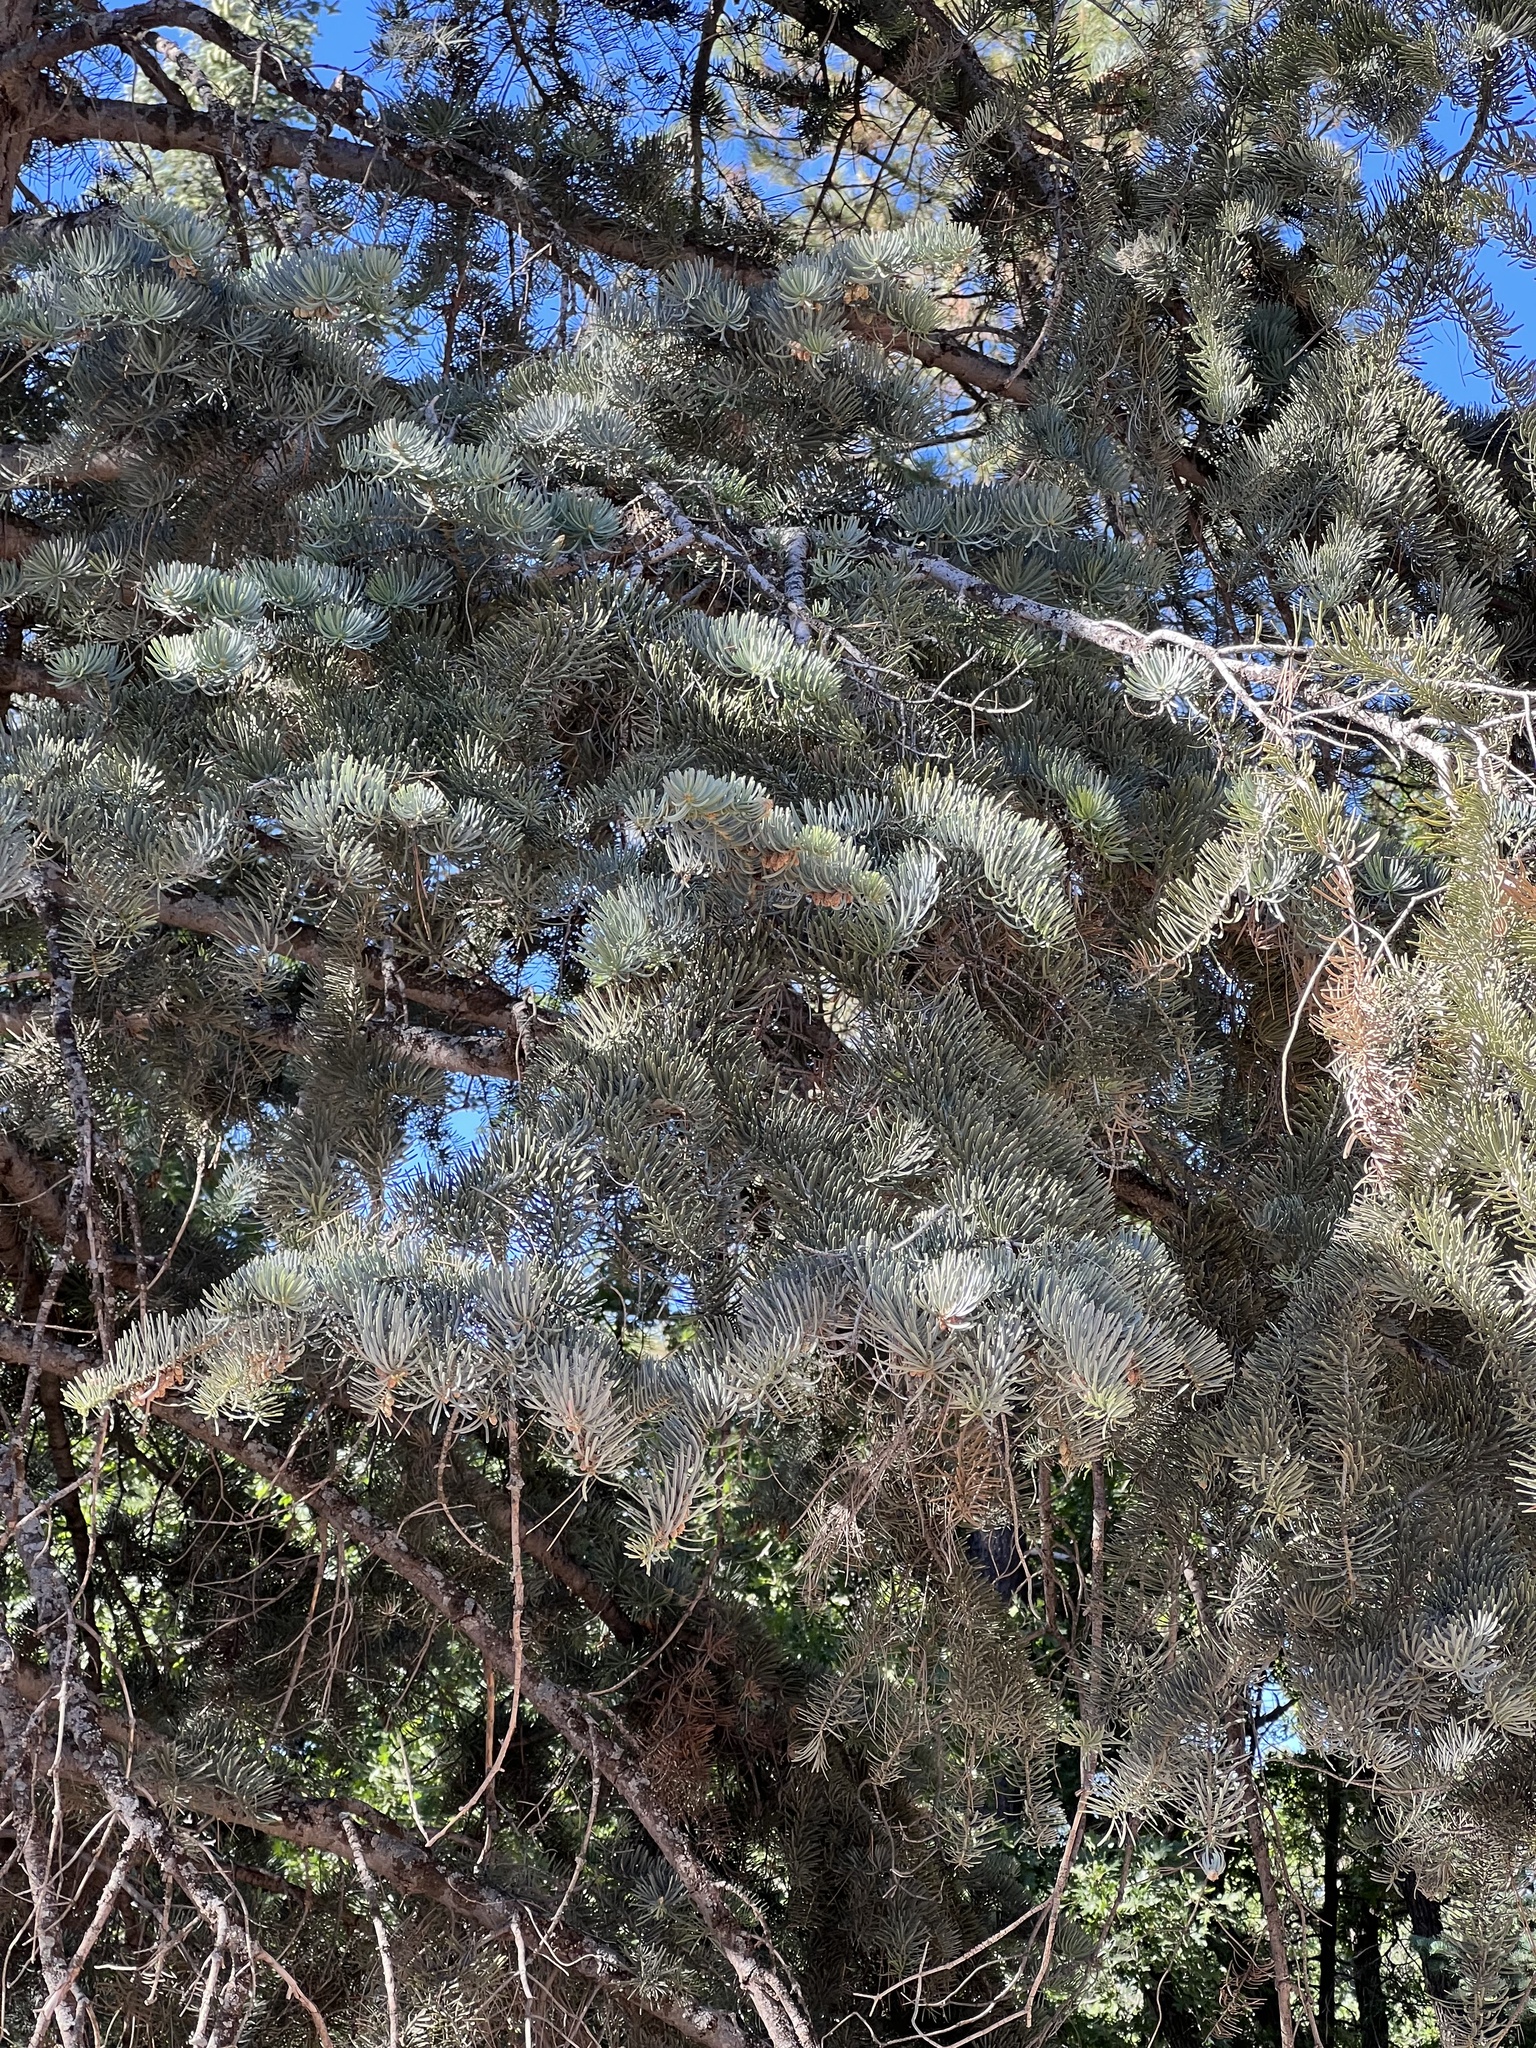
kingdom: Plantae
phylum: Tracheophyta
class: Pinopsida
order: Pinales
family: Pinaceae
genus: Abies
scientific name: Abies concolor
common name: Colorado fir
